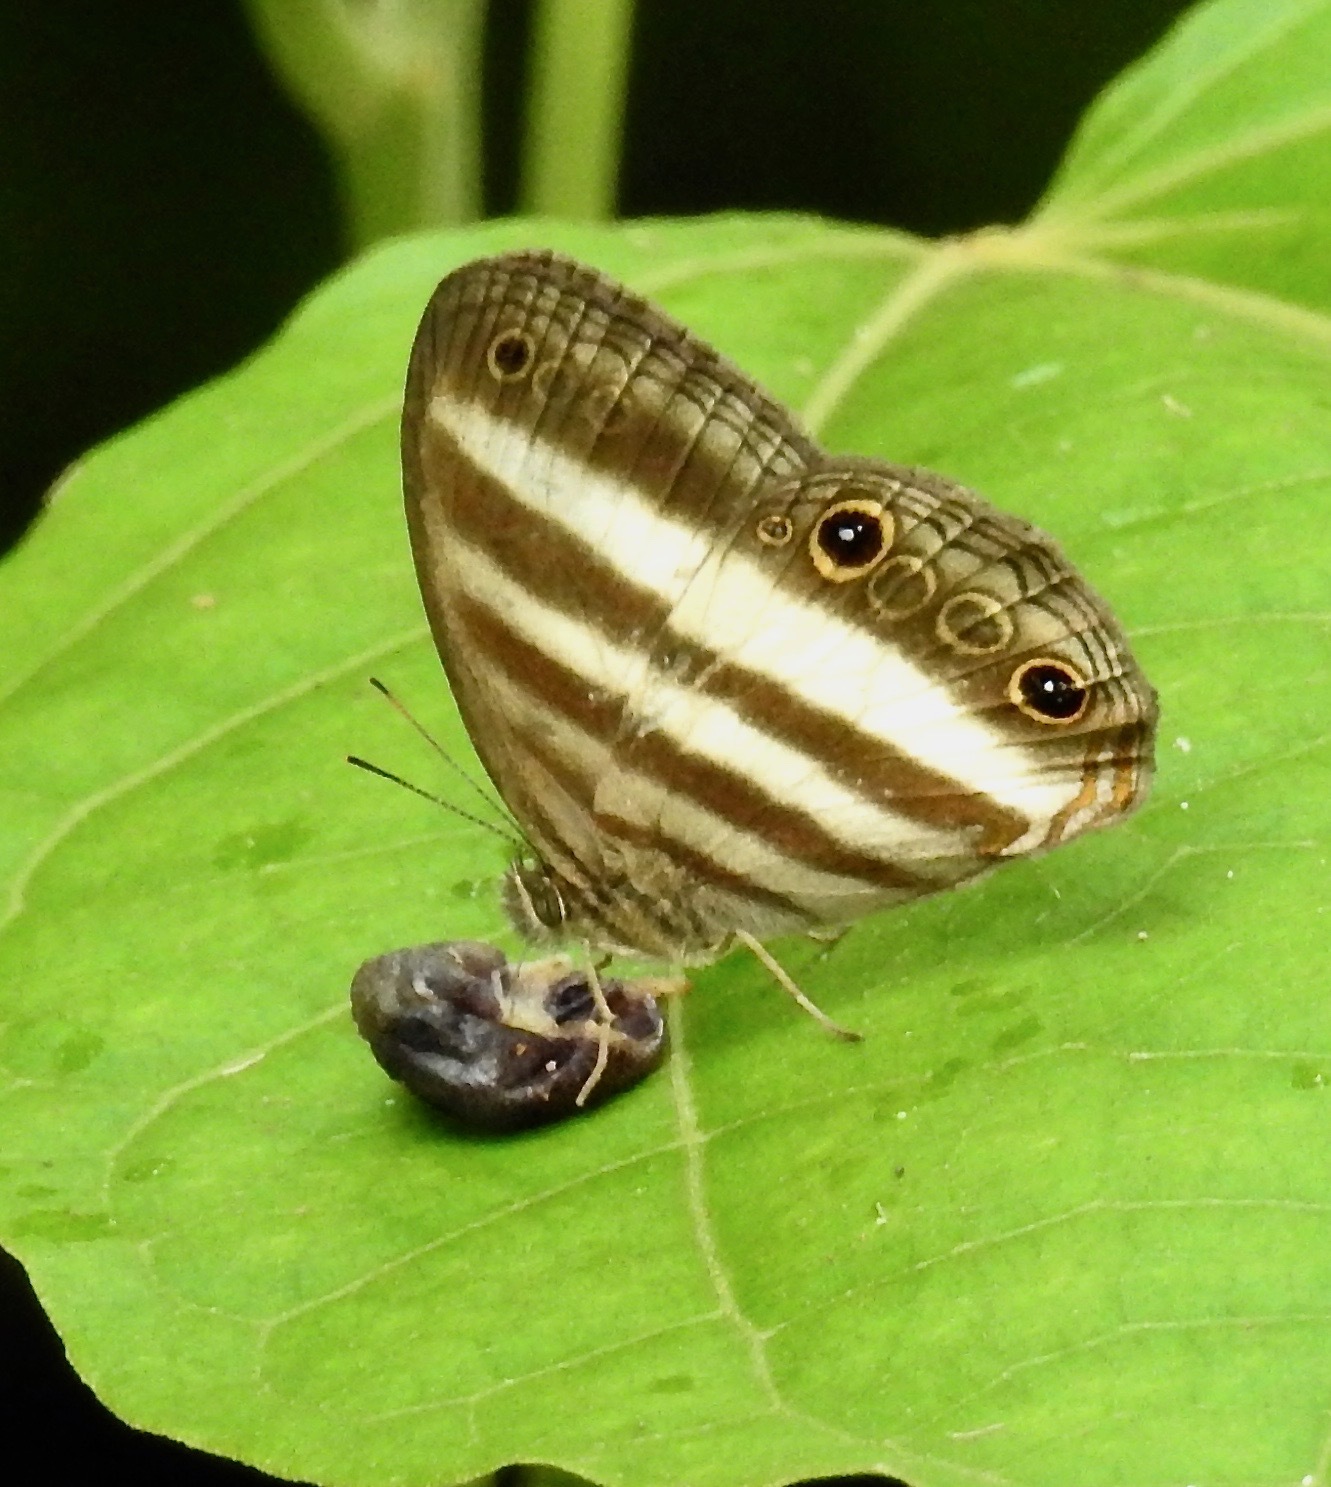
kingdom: Animalia
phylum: Arthropoda
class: Insecta
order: Lepidoptera
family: Nymphalidae
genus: Pareuptychia
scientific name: Pareuptychia hesione
